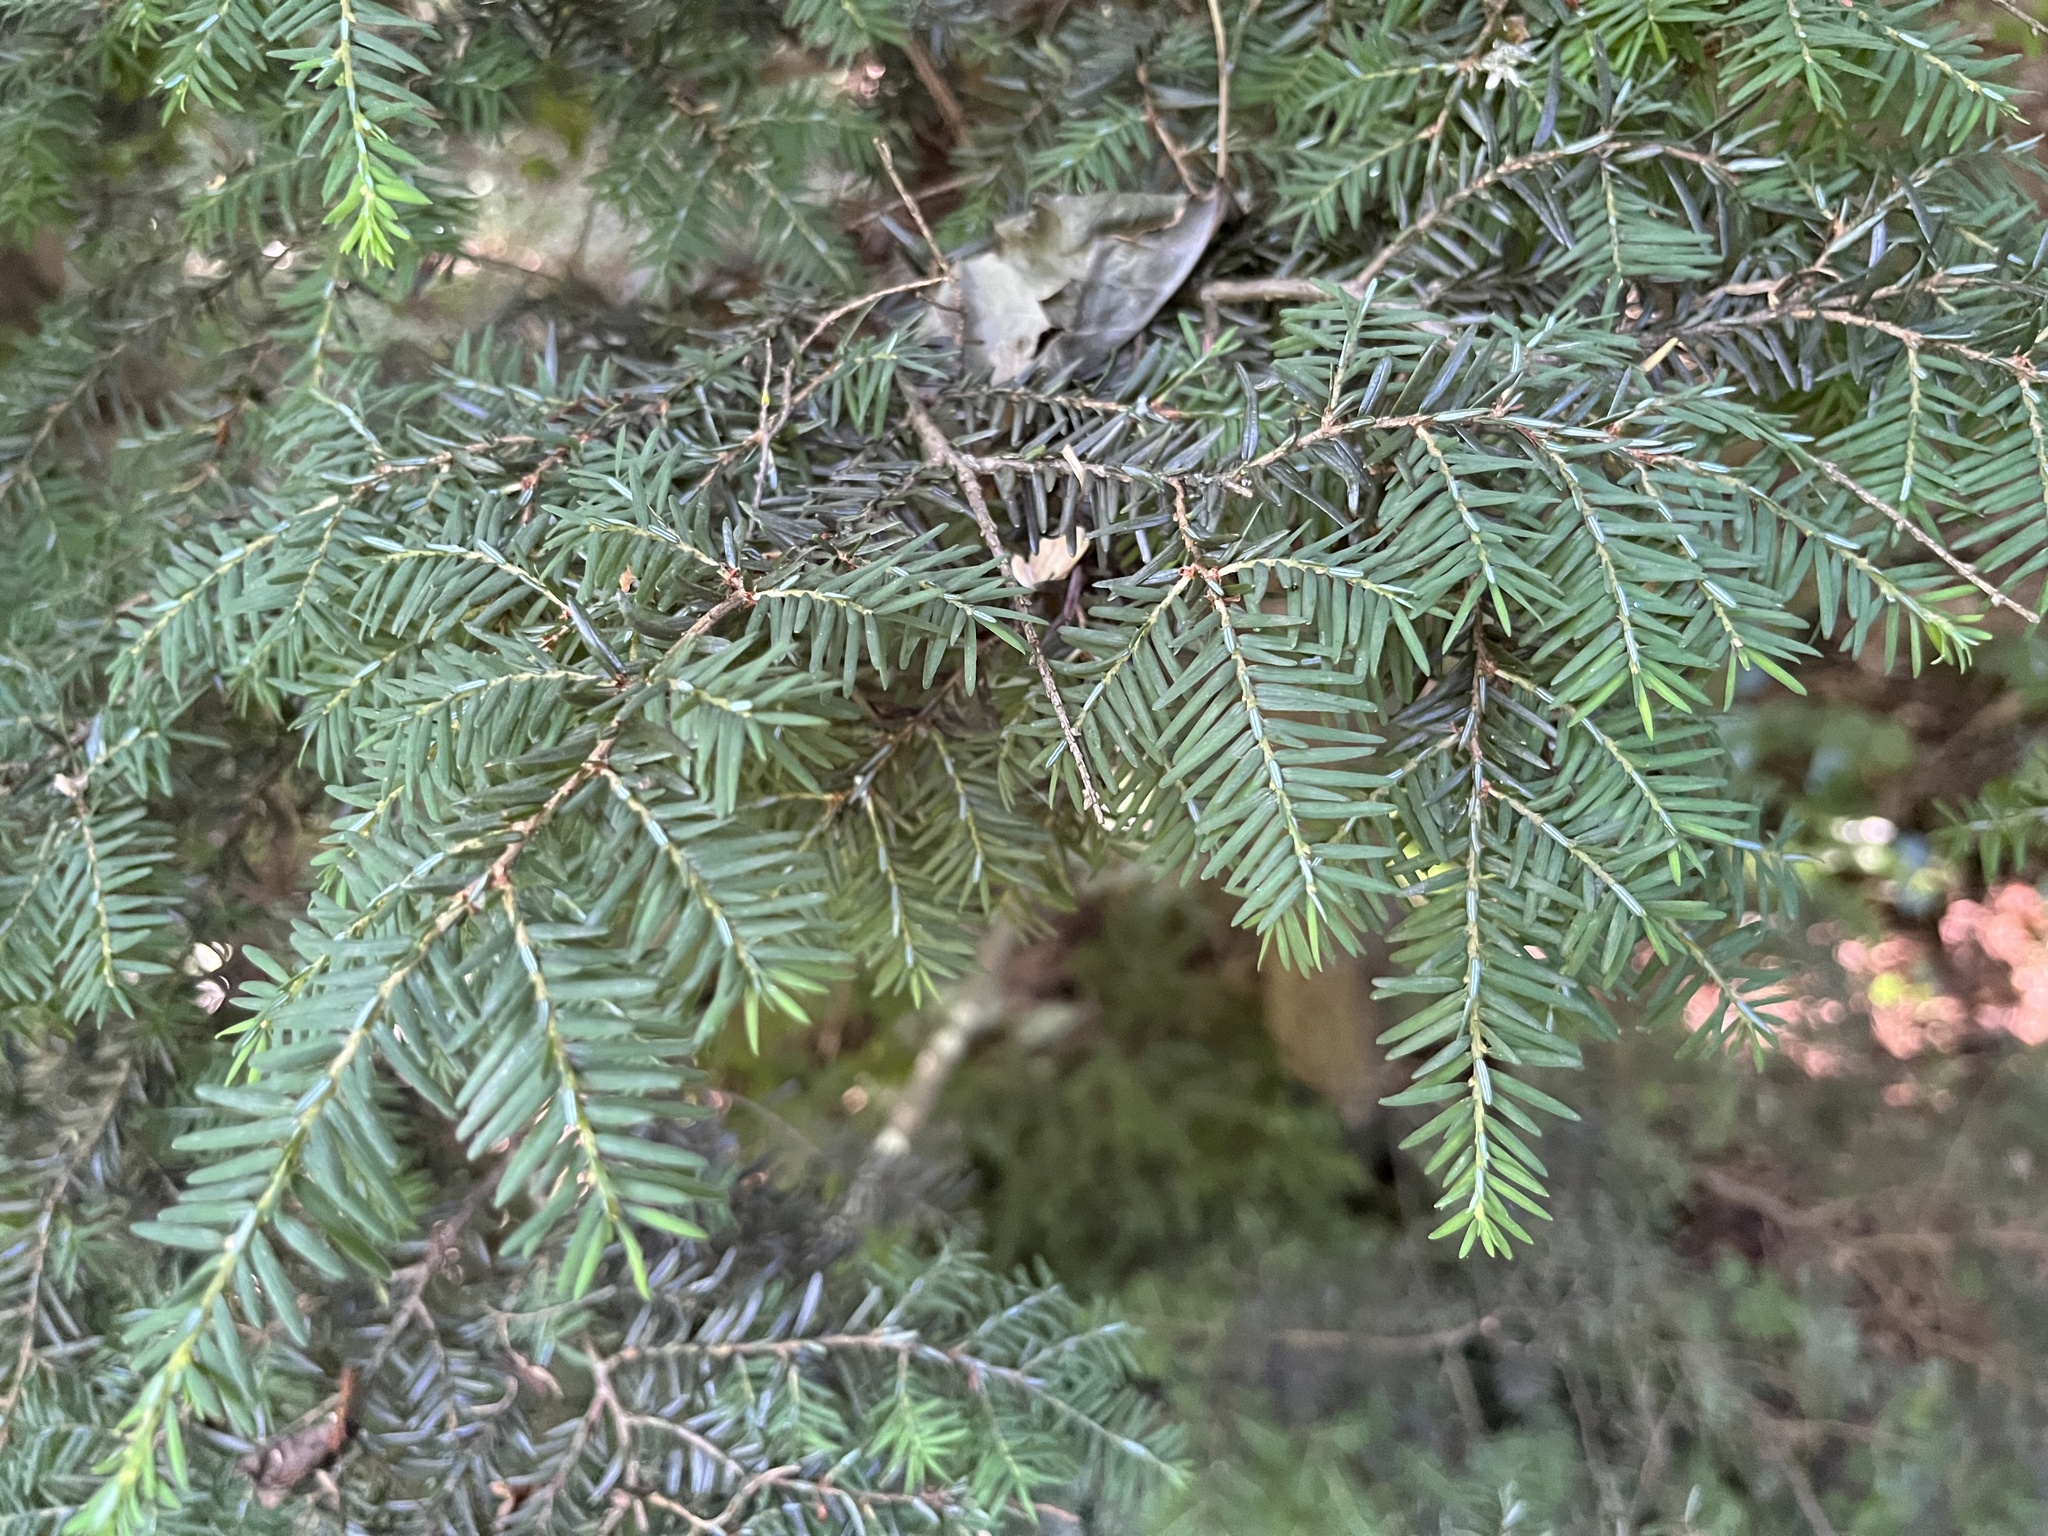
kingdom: Plantae
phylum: Tracheophyta
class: Pinopsida
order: Pinales
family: Pinaceae
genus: Tsuga
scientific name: Tsuga canadensis
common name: Eastern hemlock
